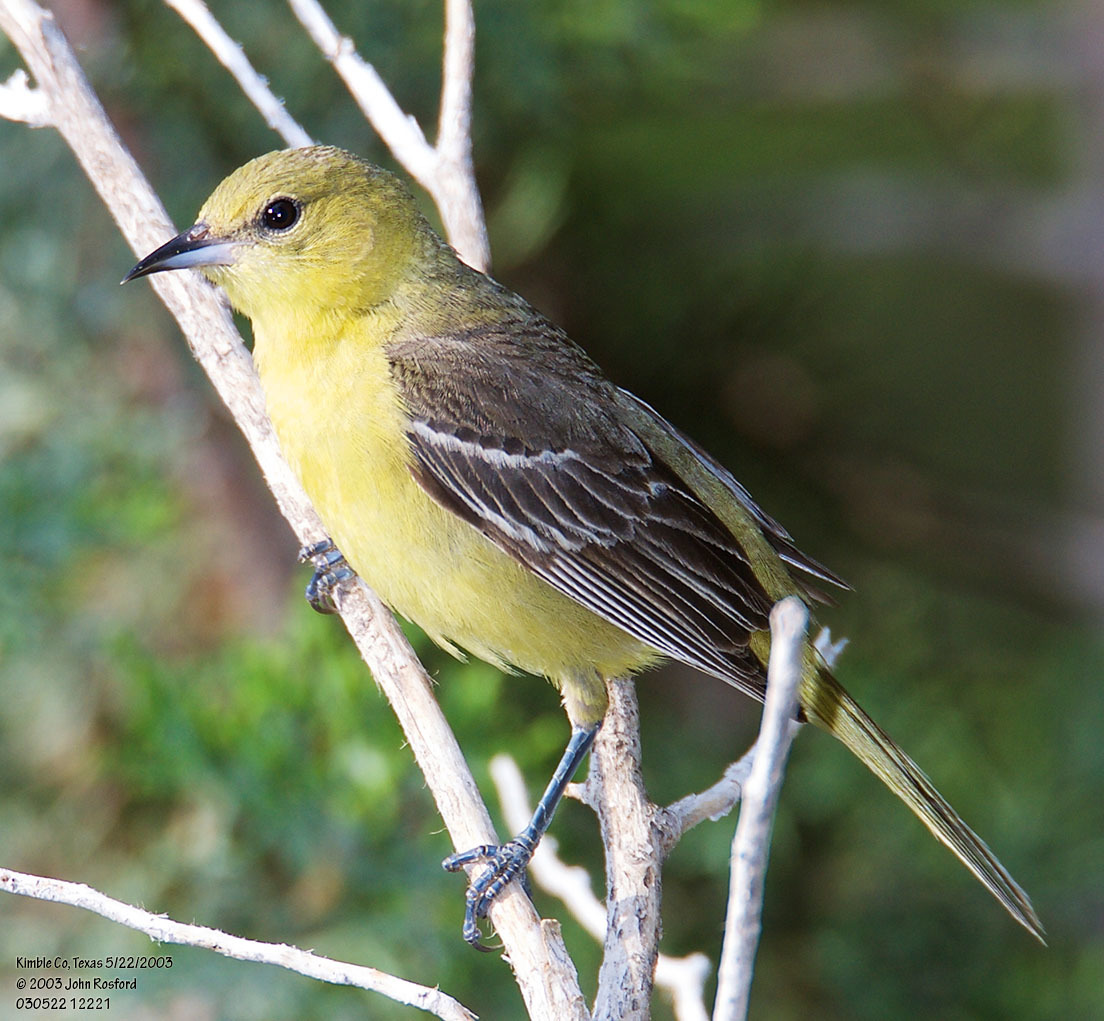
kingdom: Animalia
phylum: Chordata
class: Aves
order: Passeriformes
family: Icteridae
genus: Icterus
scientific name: Icterus spurius
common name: Orchard oriole
